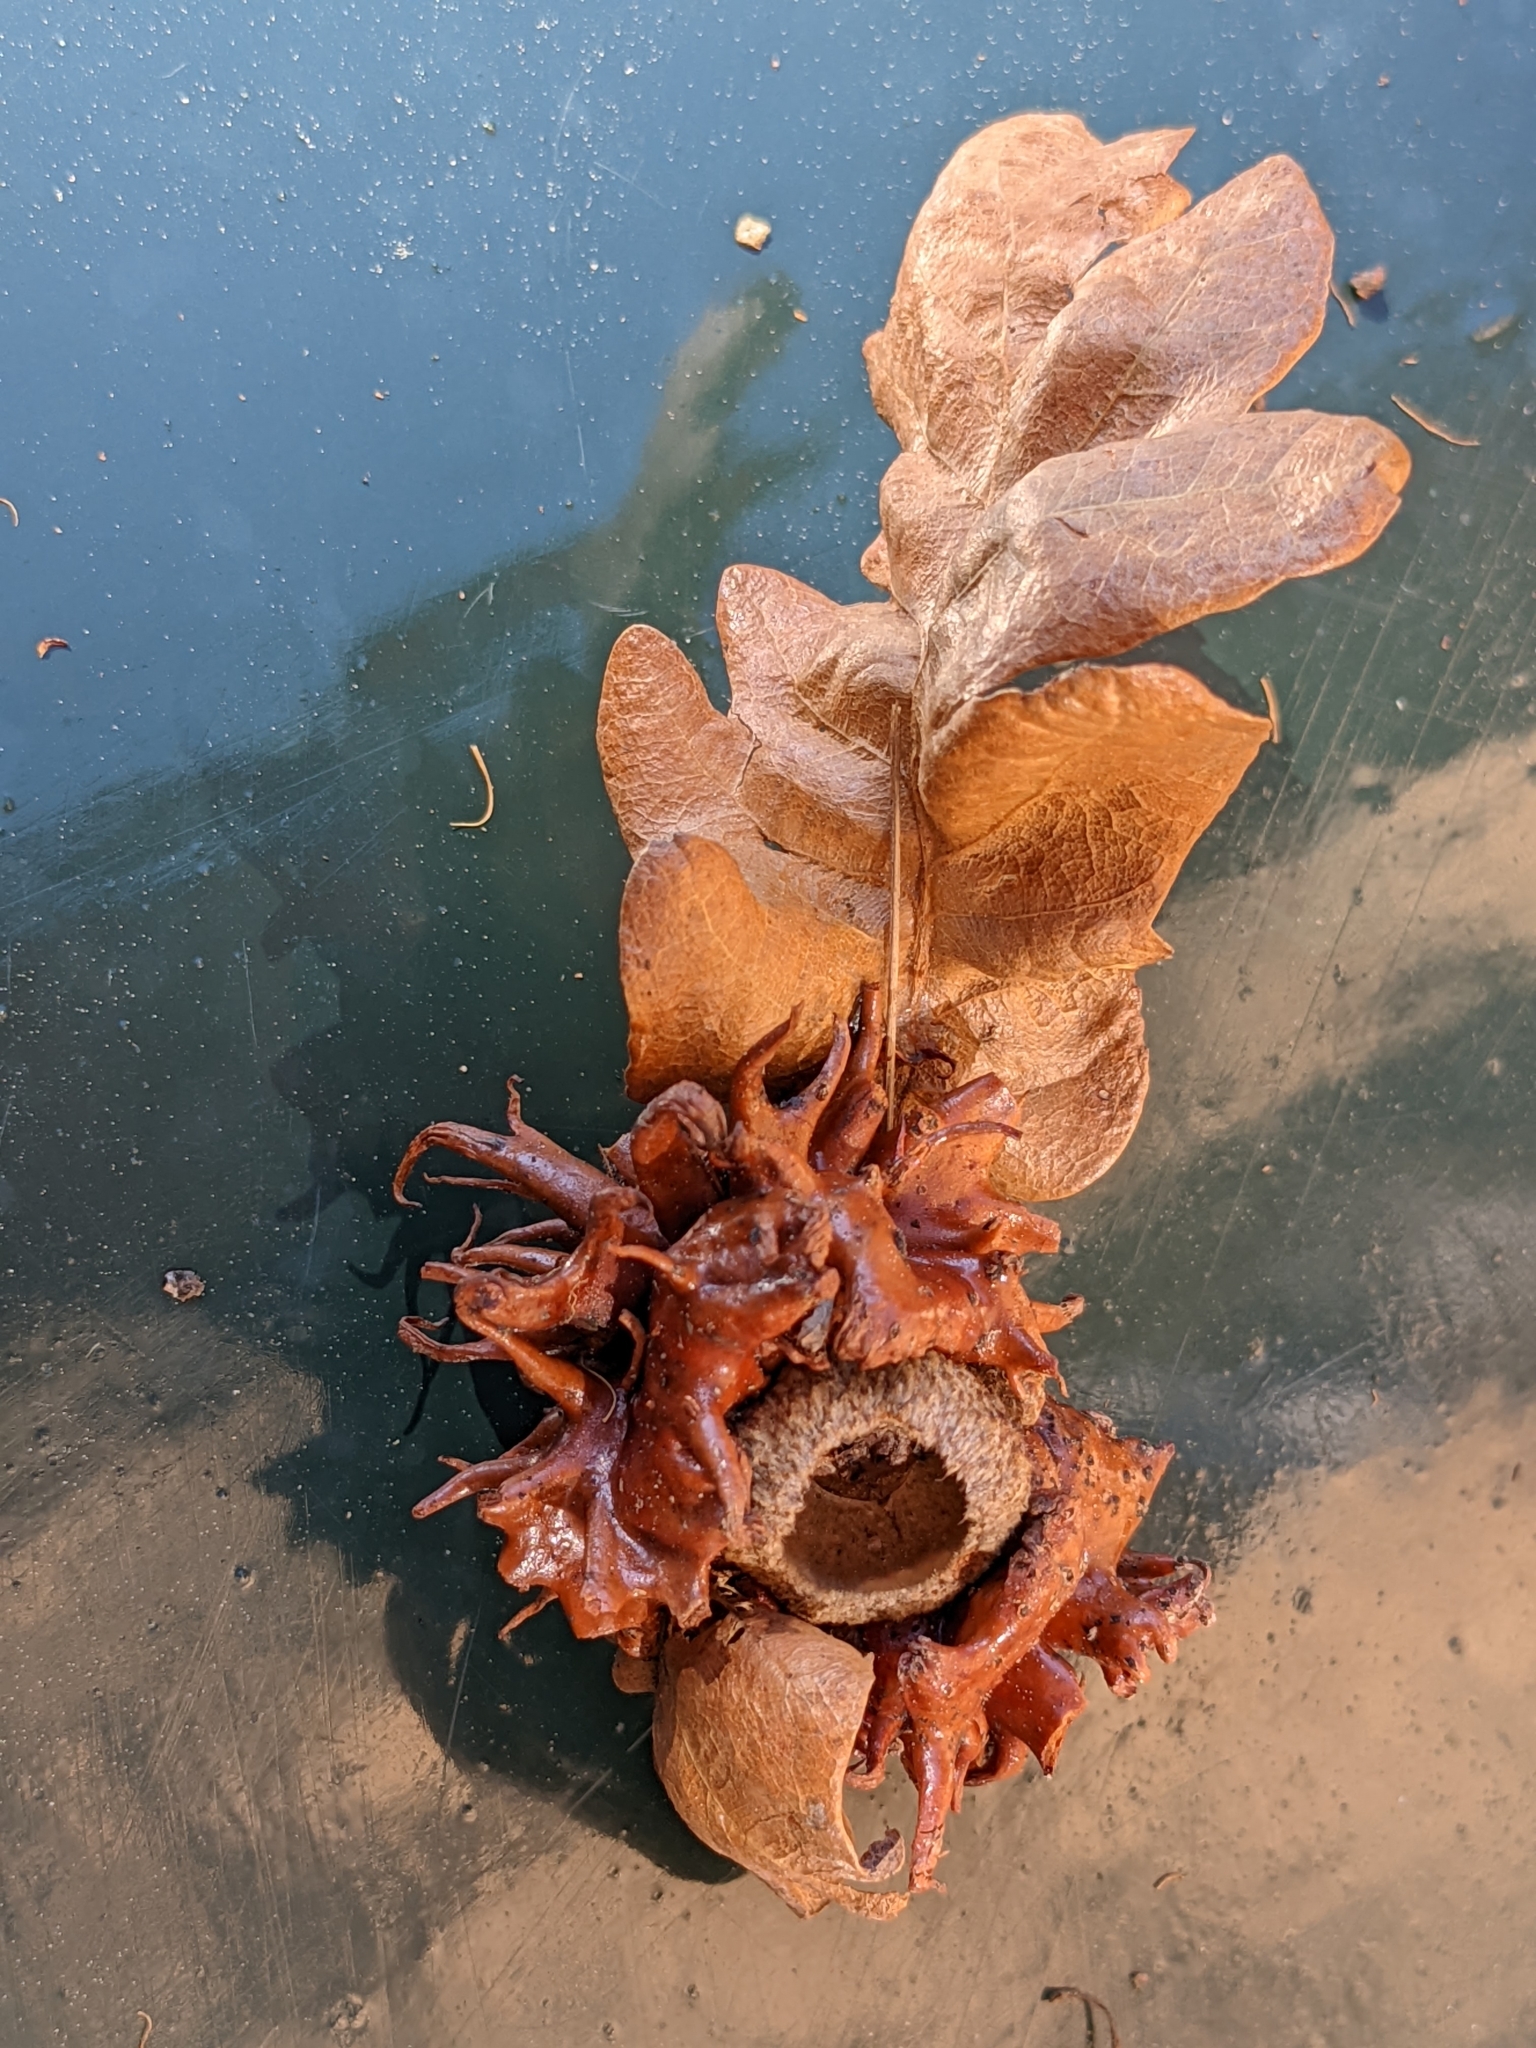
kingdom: Animalia
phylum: Arthropoda
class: Insecta
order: Hymenoptera
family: Cynipidae
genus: Andricus
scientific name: Andricus dentimitratus
